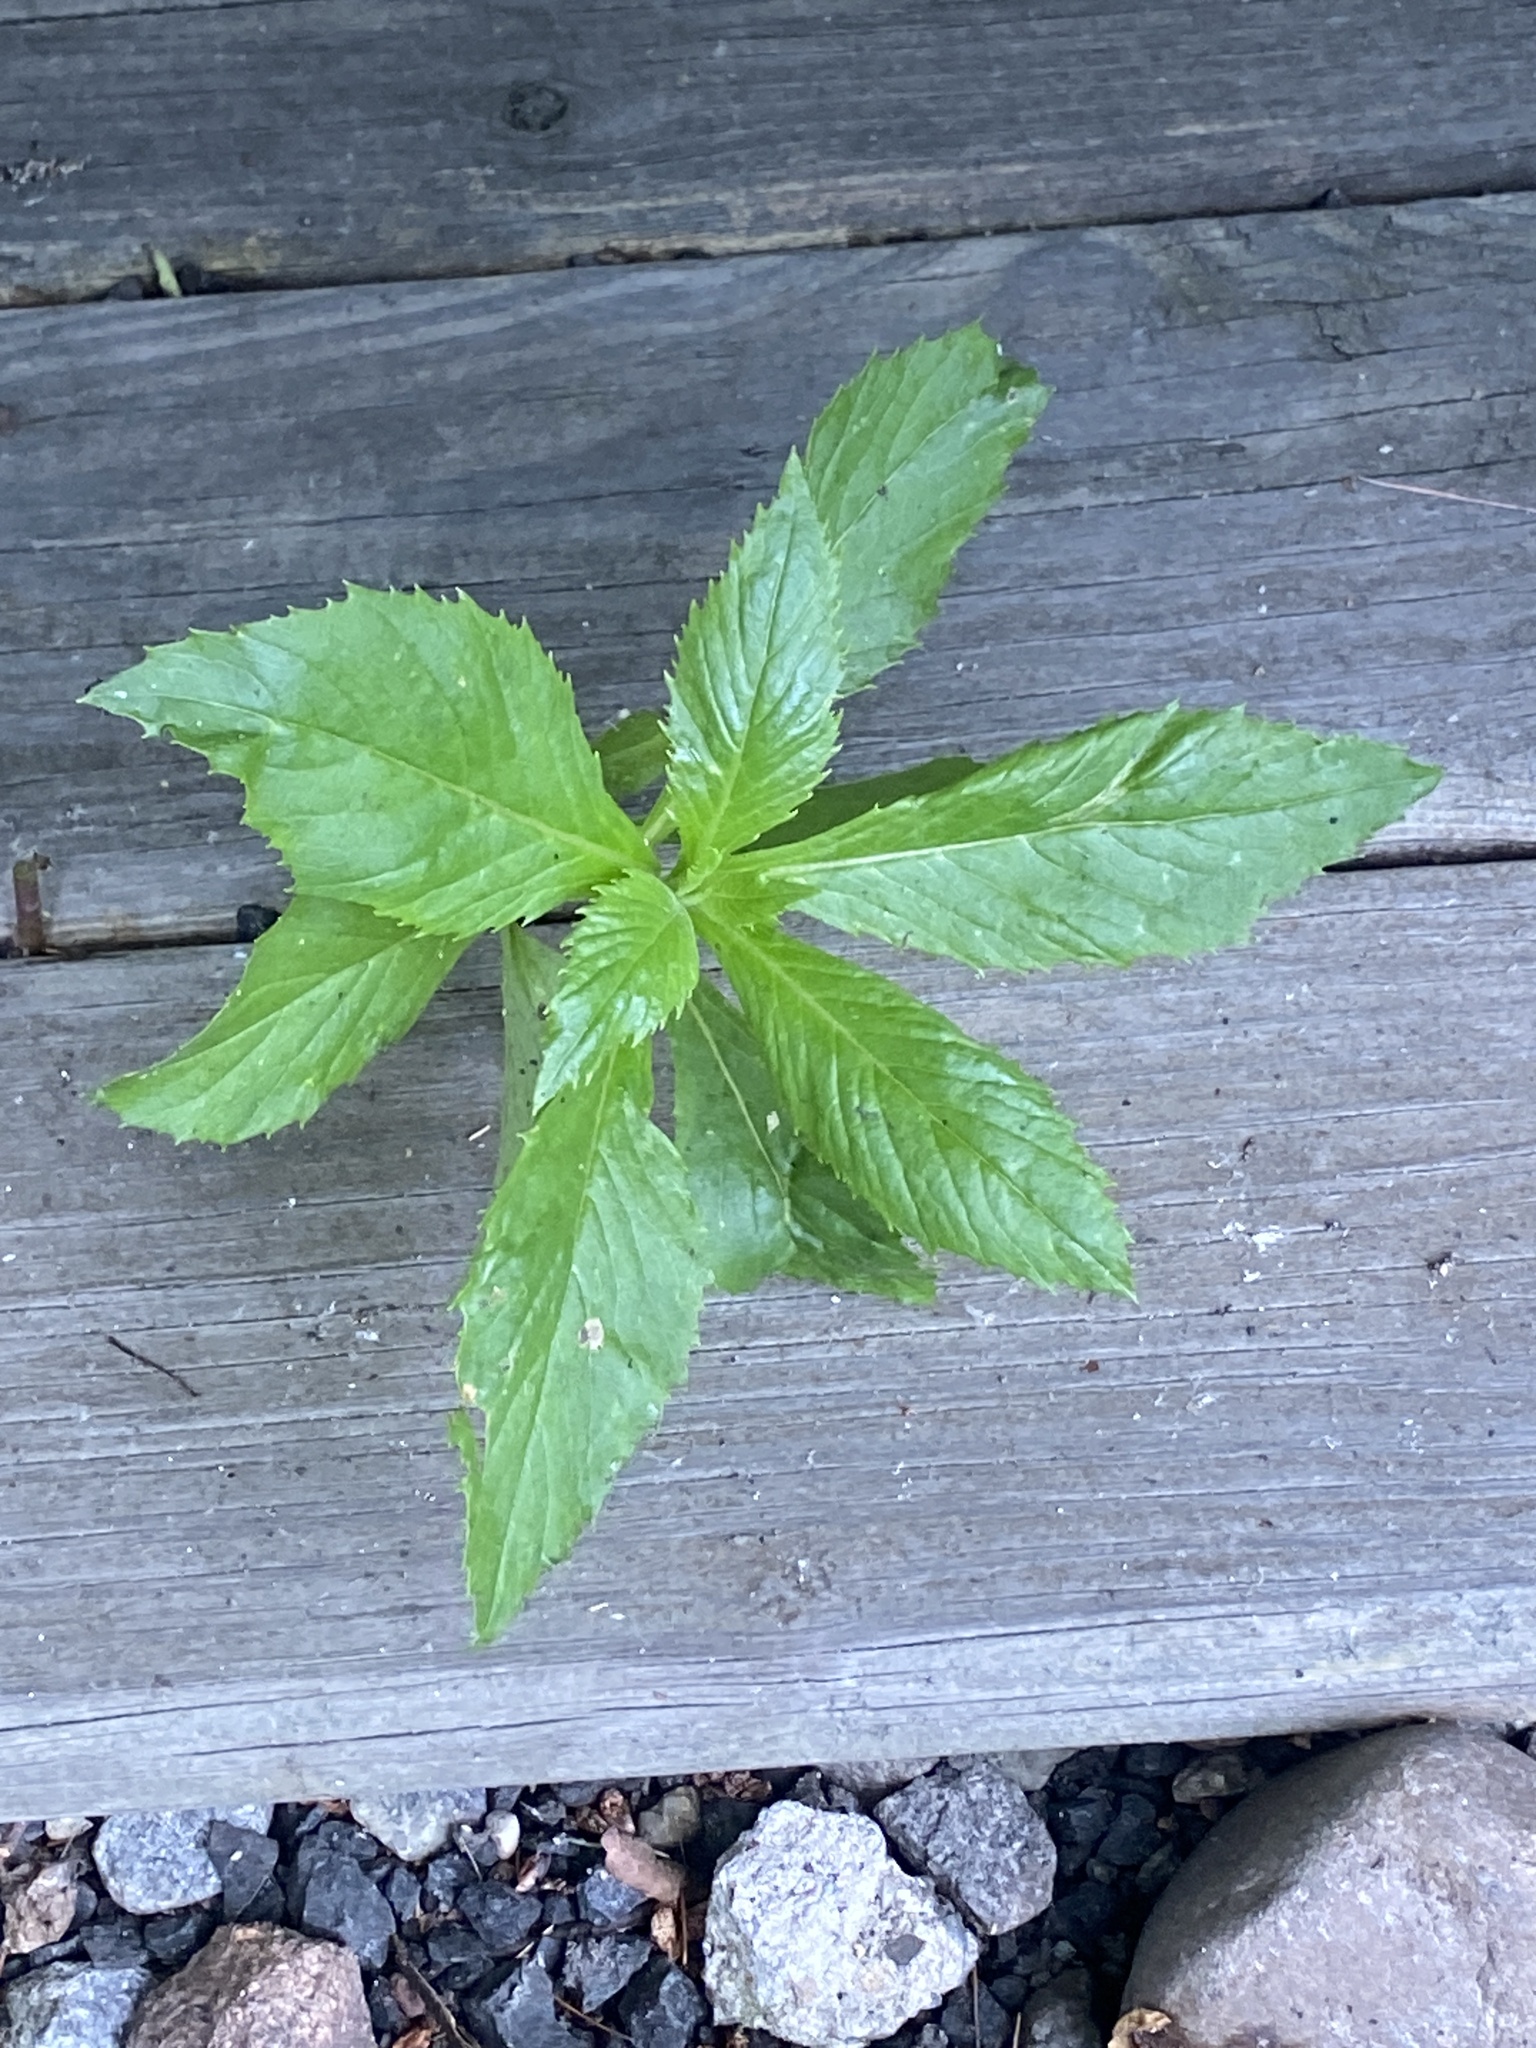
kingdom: Plantae
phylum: Tracheophyta
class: Magnoliopsida
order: Asterales
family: Asteraceae
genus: Erechtites
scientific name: Erechtites hieraciifolius
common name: American burnweed
